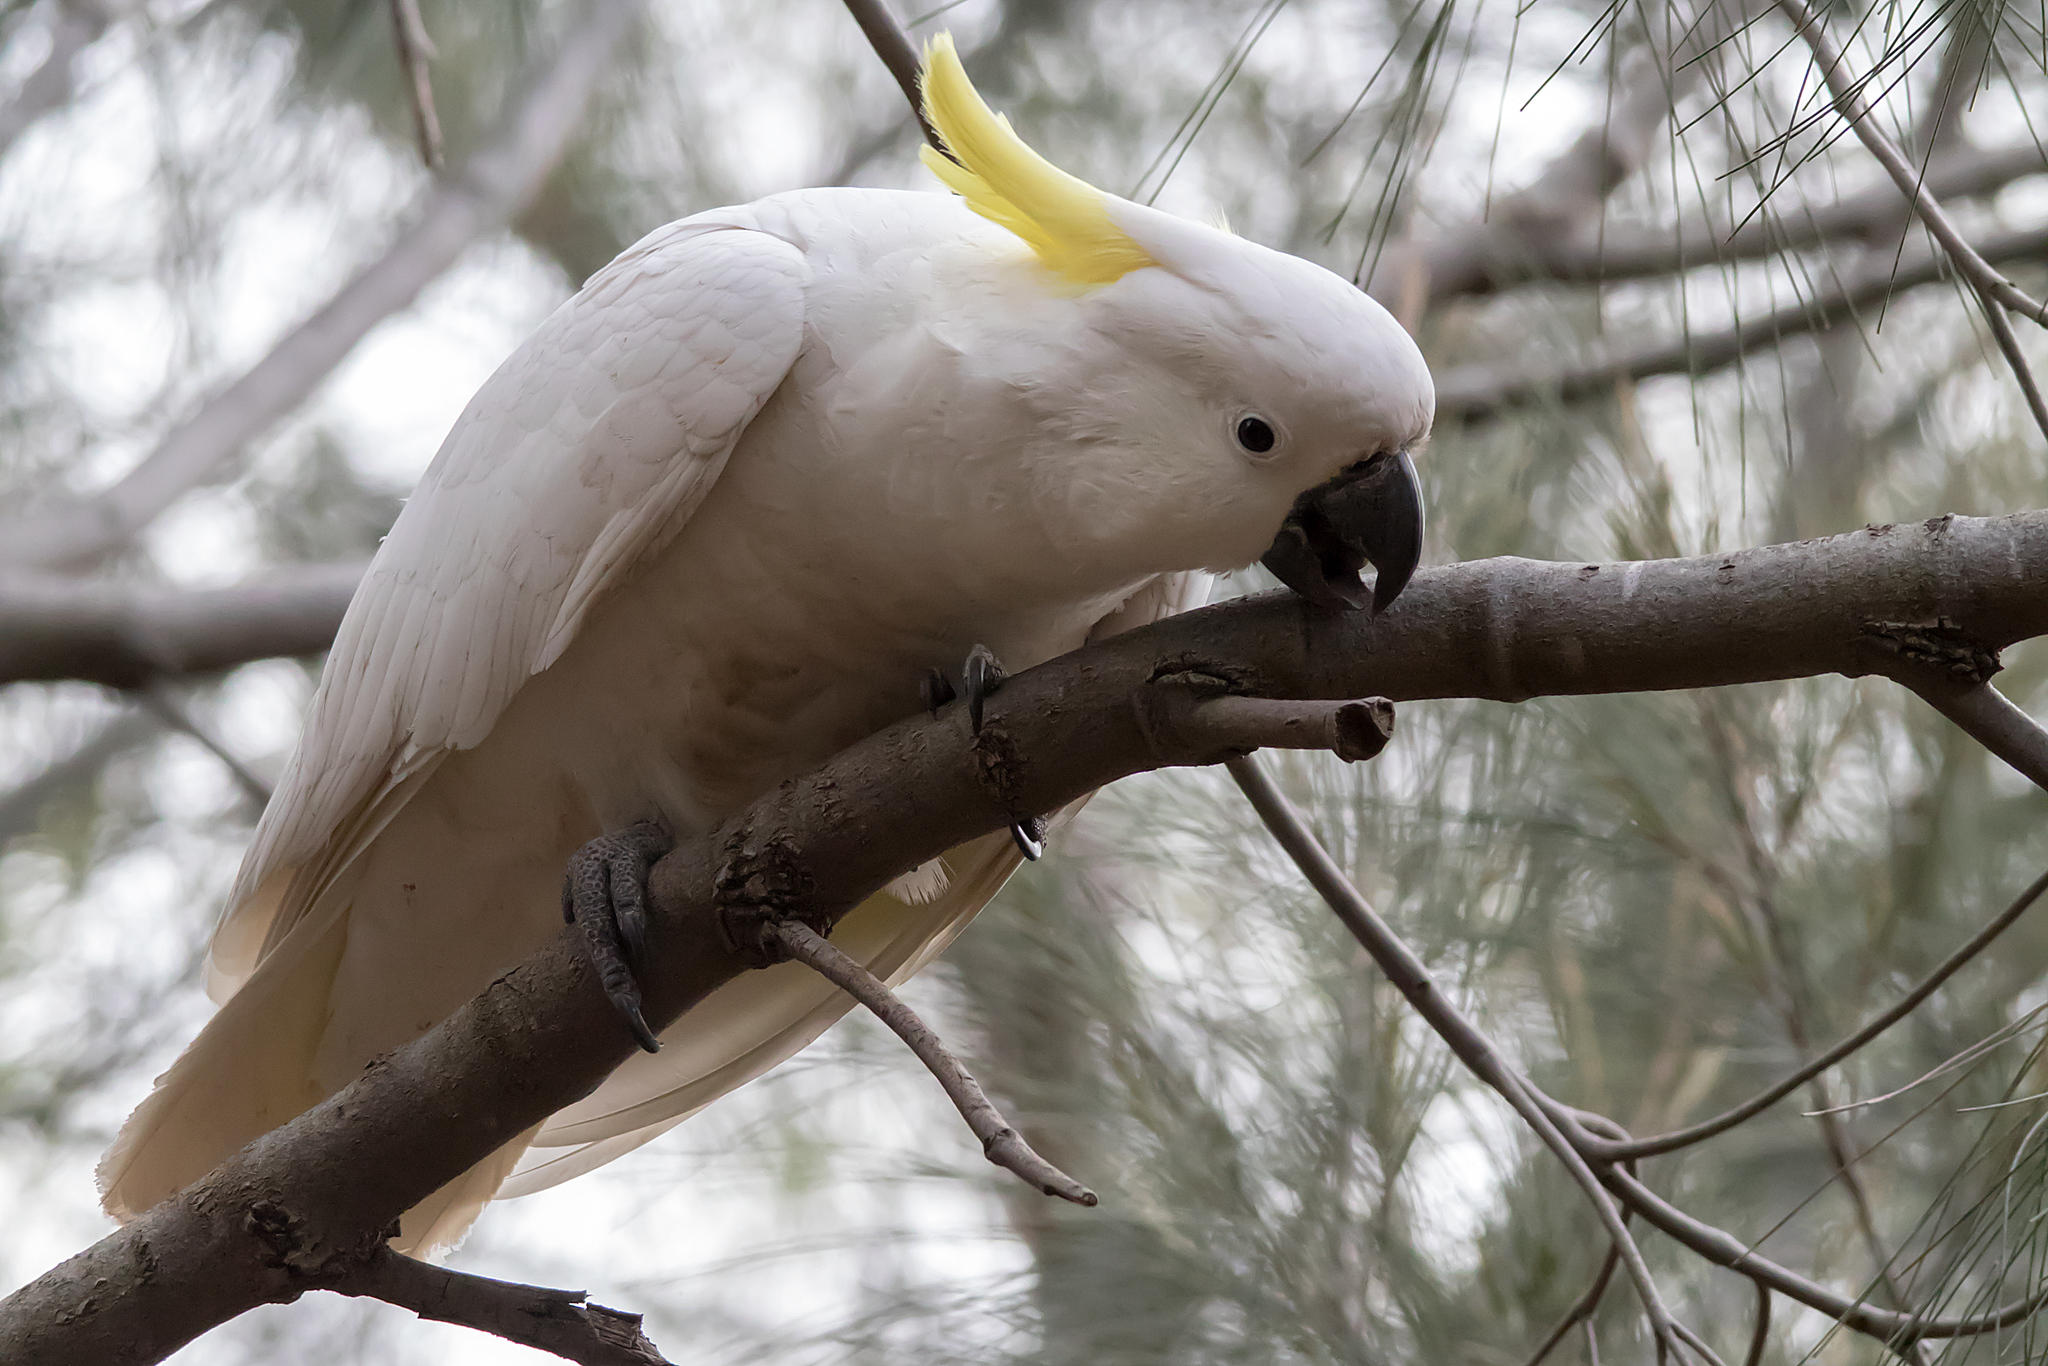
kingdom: Animalia
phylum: Chordata
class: Aves
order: Psittaciformes
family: Psittacidae
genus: Cacatua
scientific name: Cacatua galerita
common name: Sulphur-crested cockatoo
